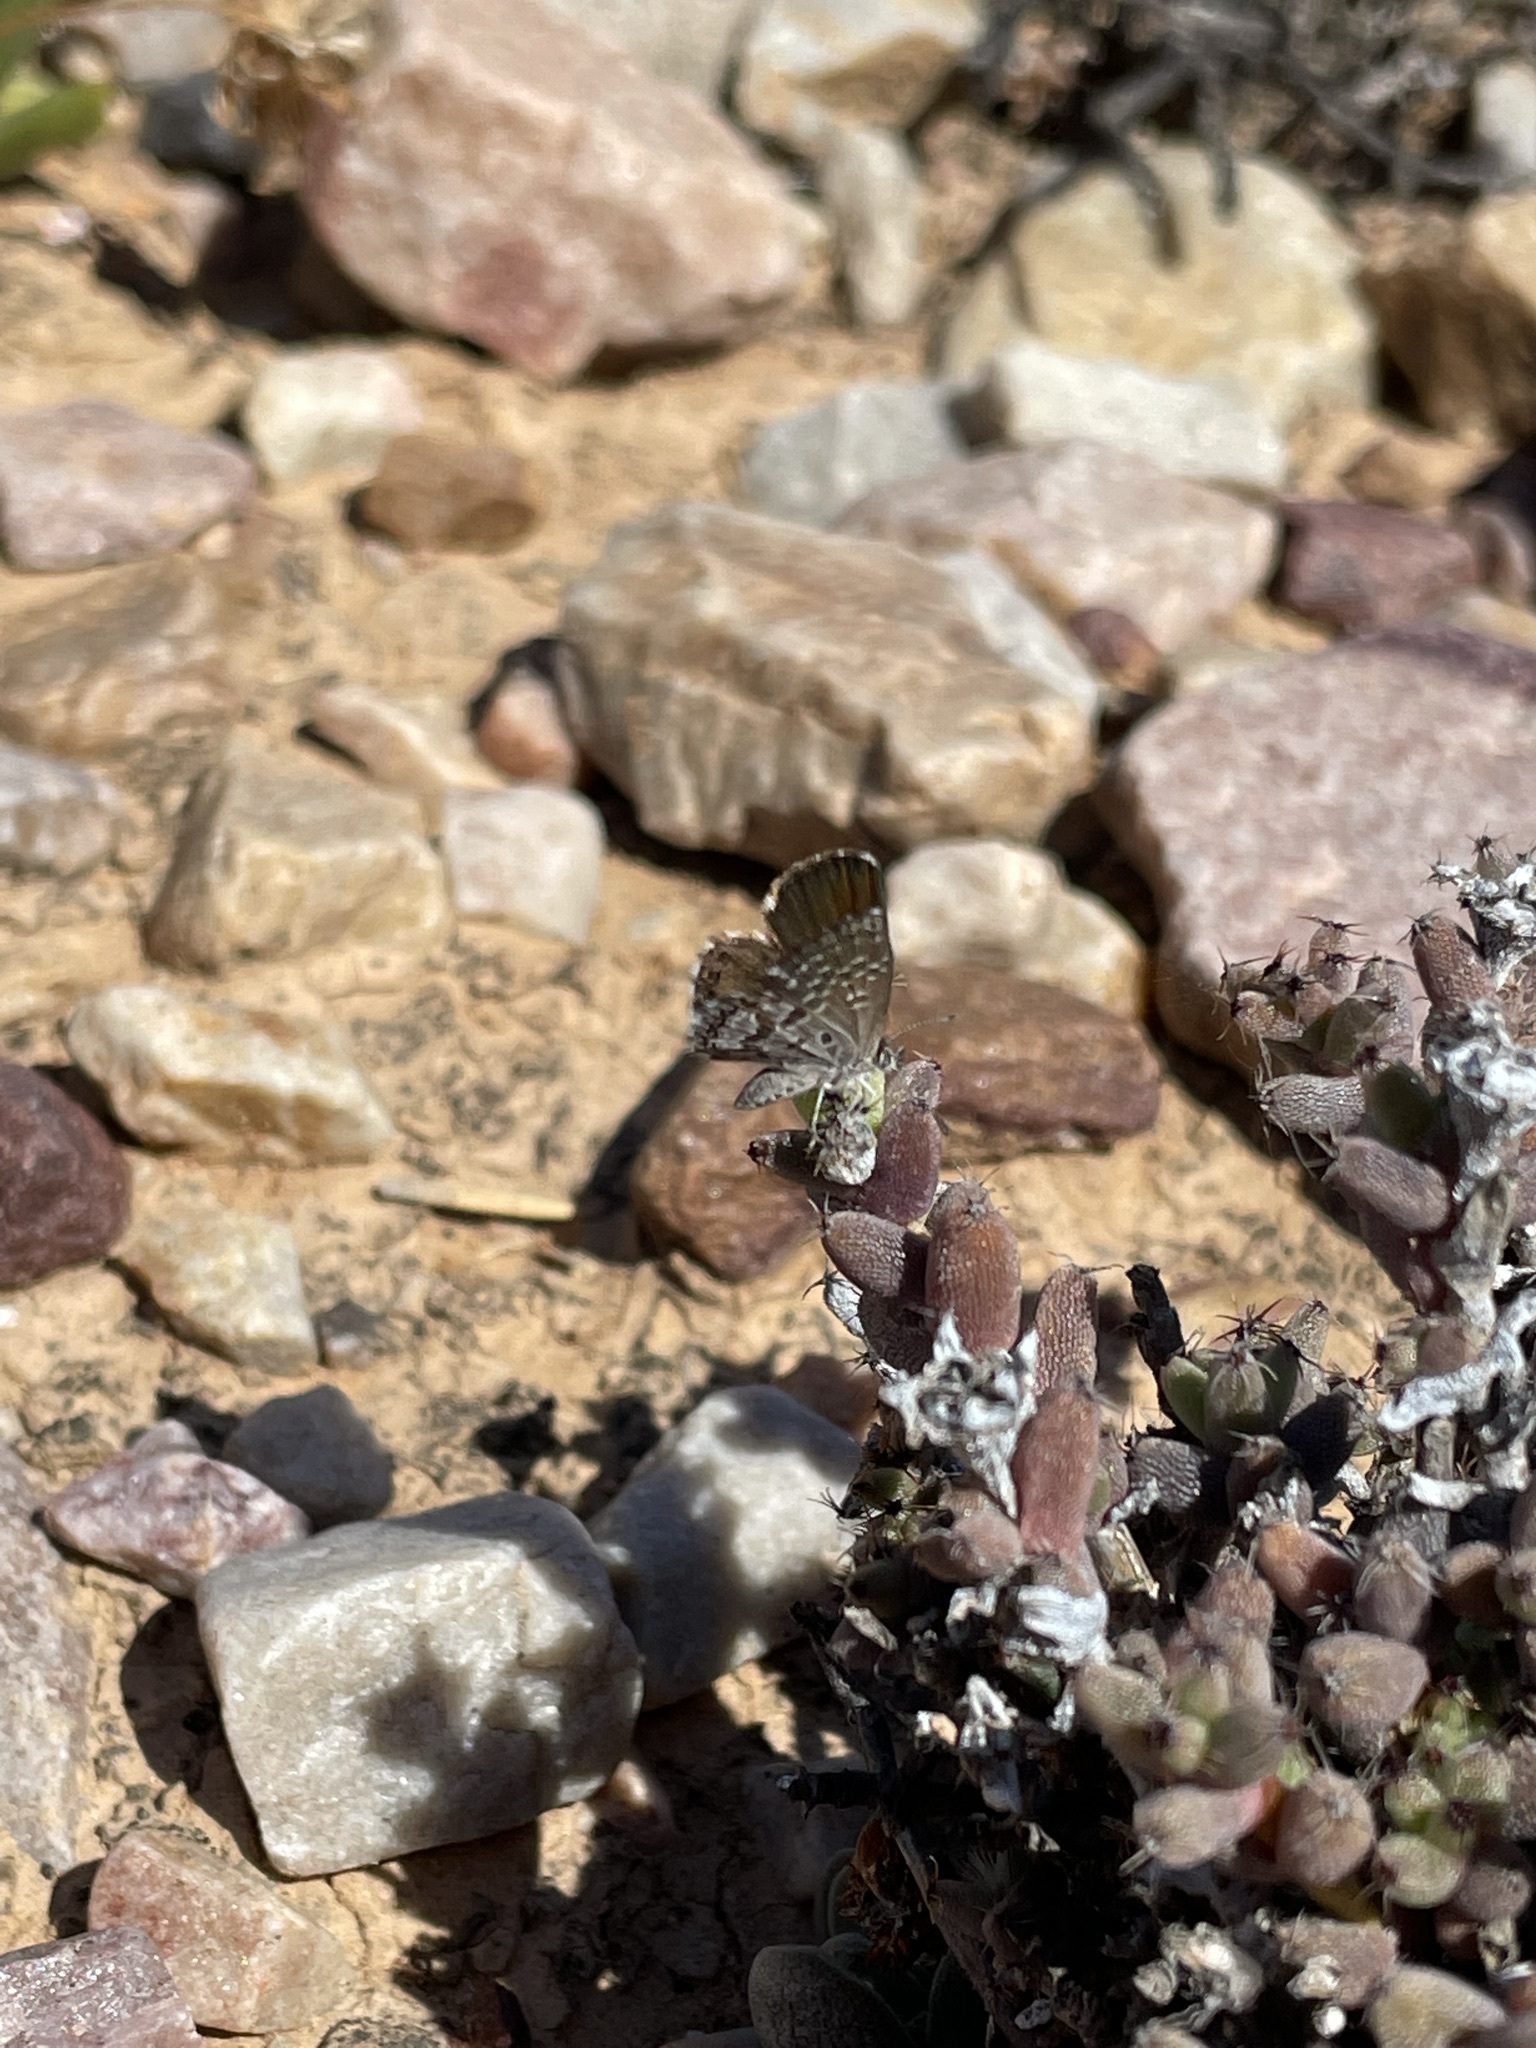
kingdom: Animalia
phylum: Arthropoda
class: Insecta
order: Lepidoptera
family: Lycaenidae
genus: Oraidium
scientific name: Oraidium barberae
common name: Dwarf blue
